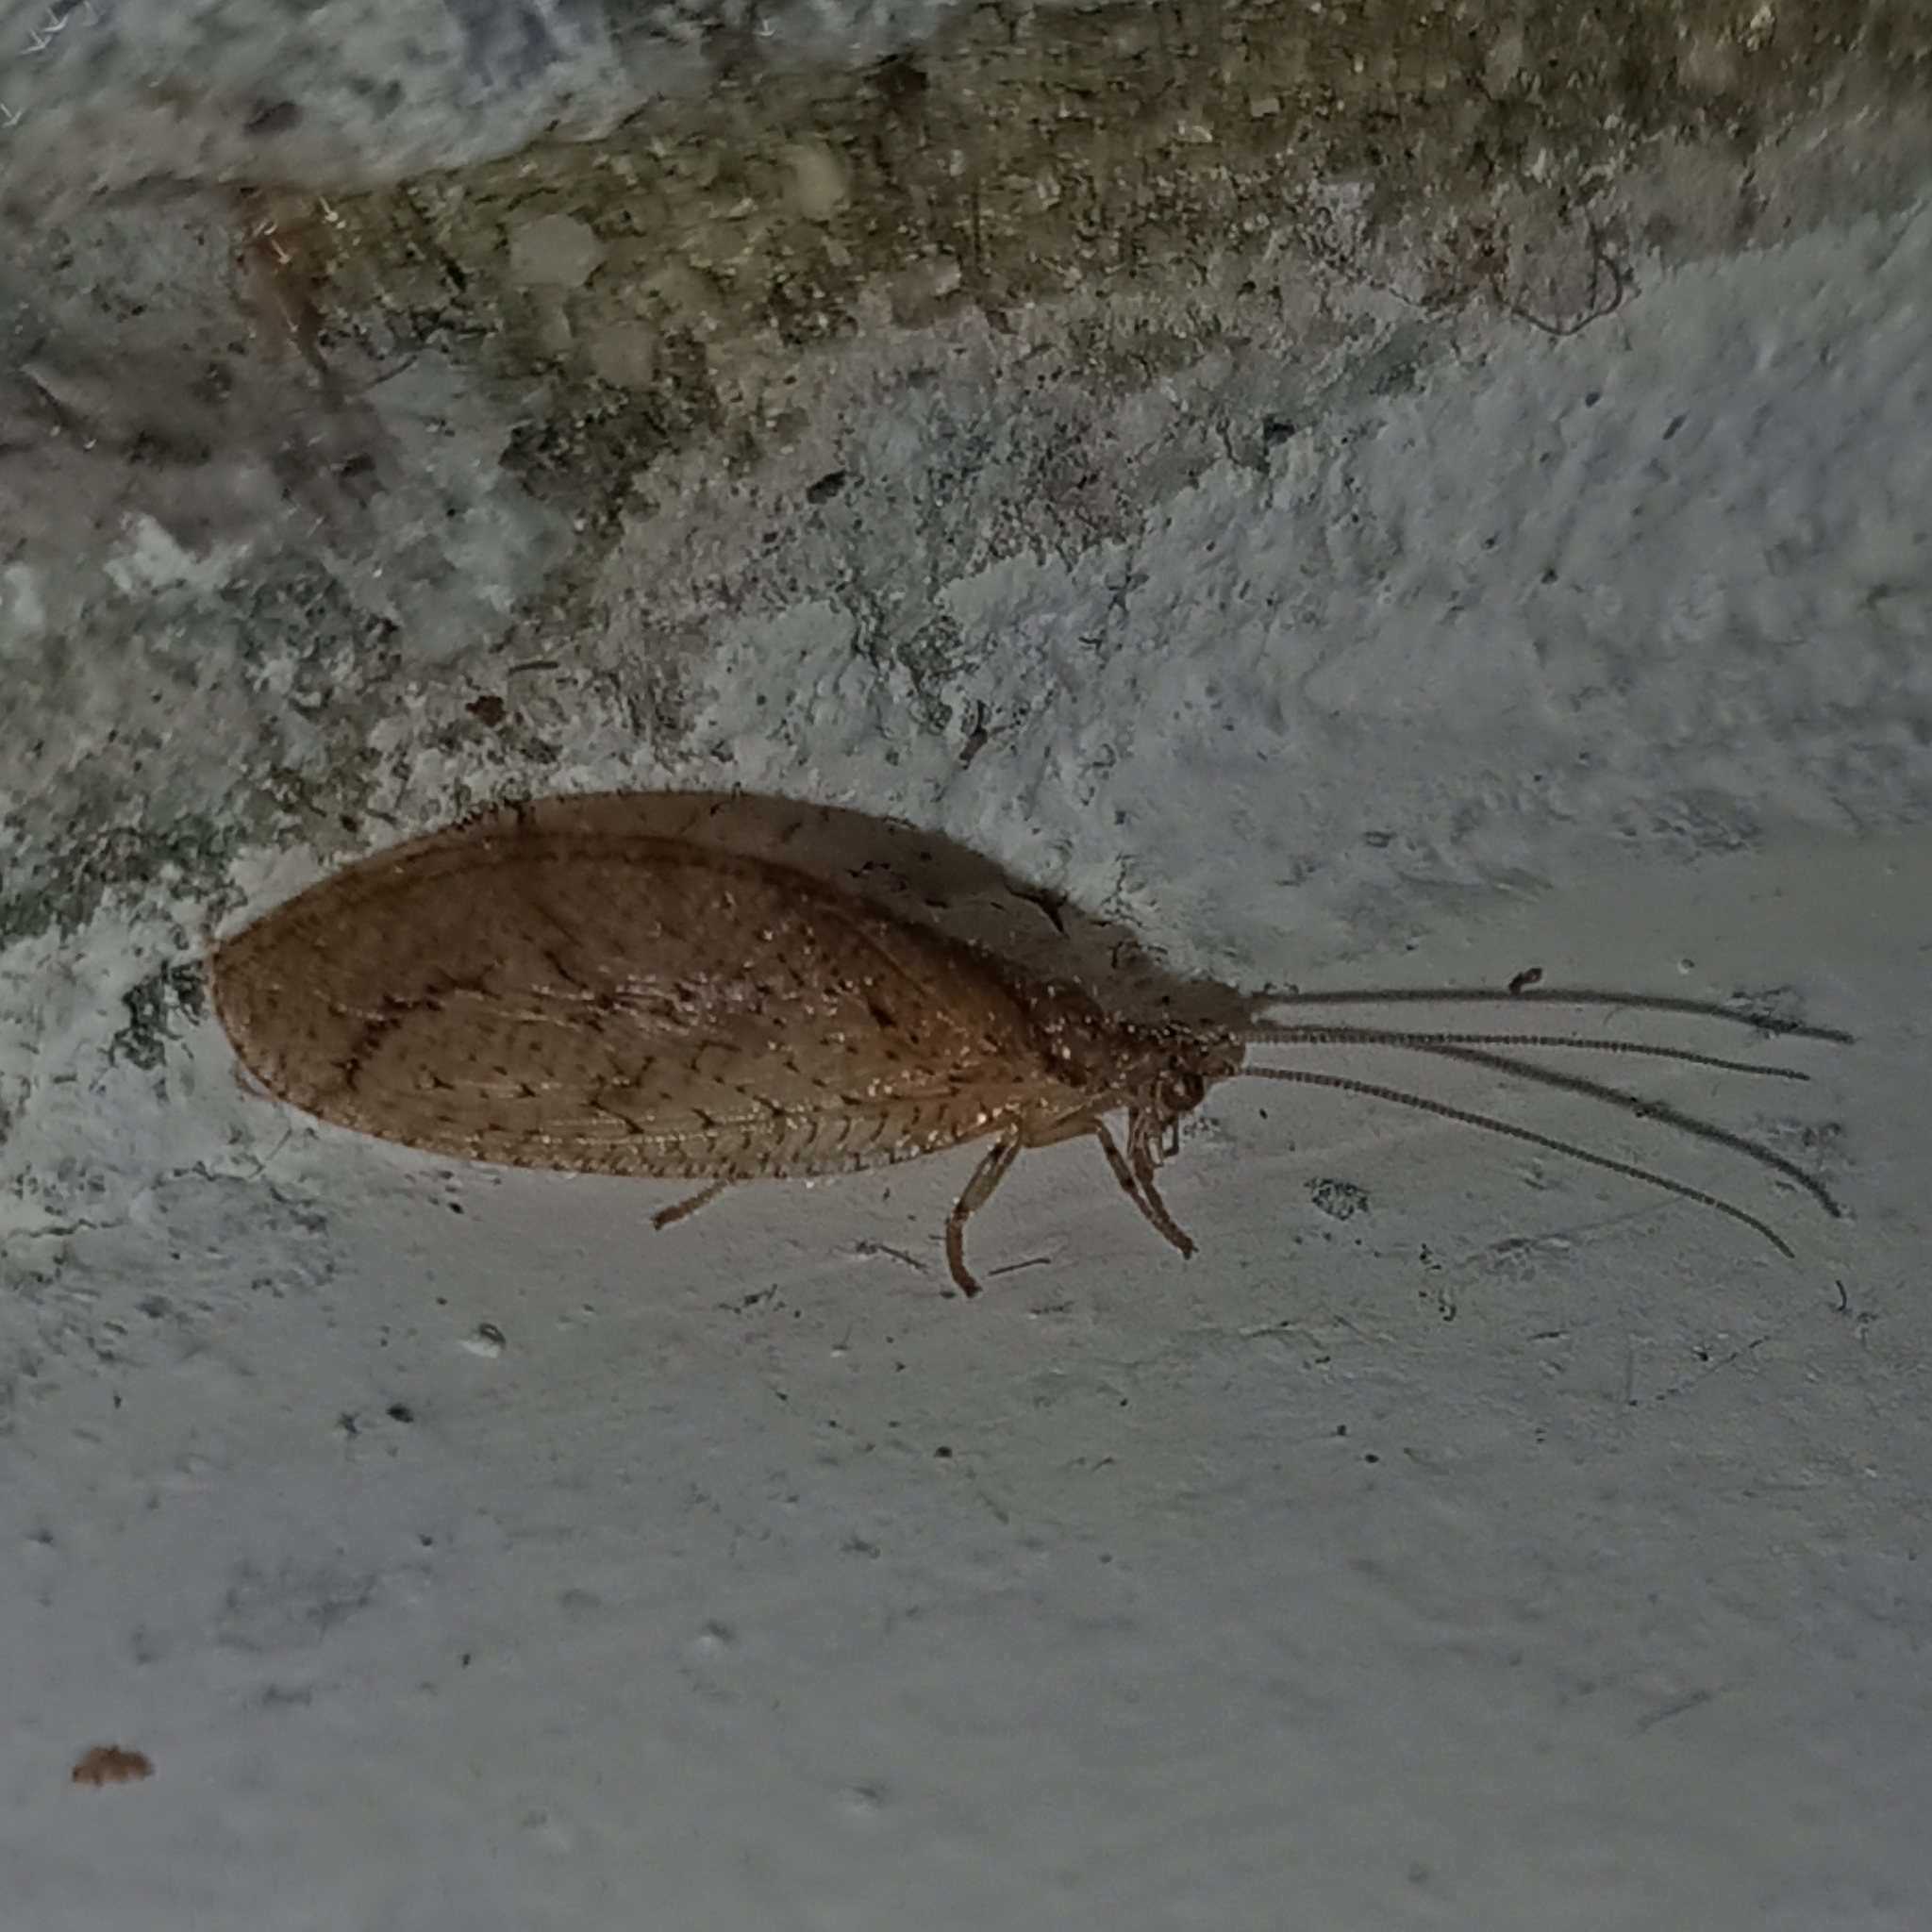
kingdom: Animalia
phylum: Arthropoda
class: Insecta
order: Neuroptera
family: Hemerobiidae
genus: Nusalala
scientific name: Nusalala tessellata
